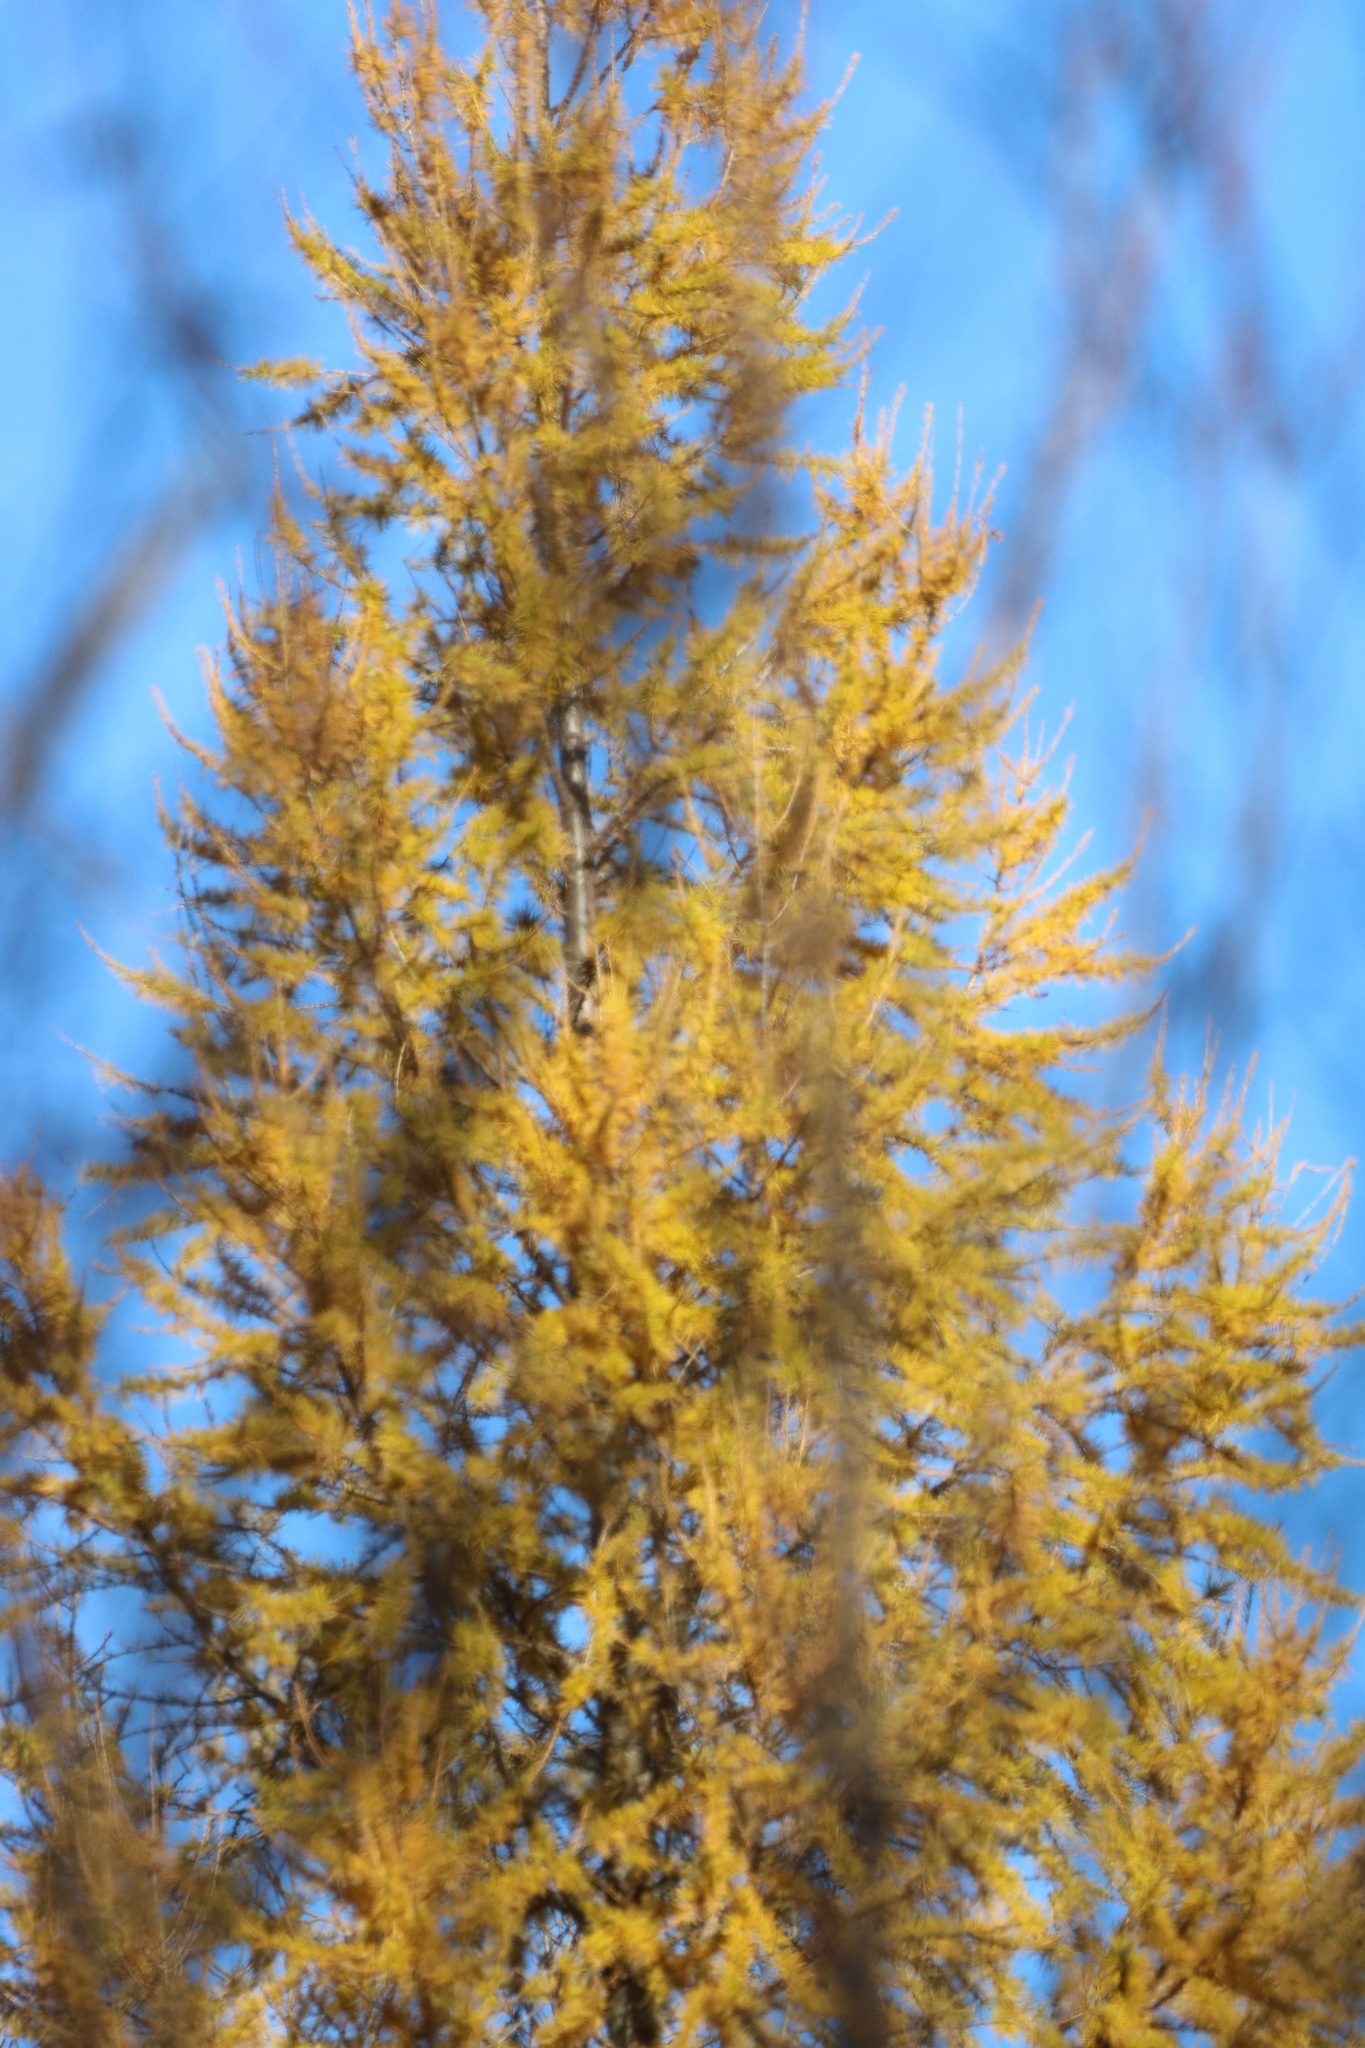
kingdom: Plantae
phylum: Tracheophyta
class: Pinopsida
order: Pinales
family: Pinaceae
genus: Larix
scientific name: Larix laricina
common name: American larch
